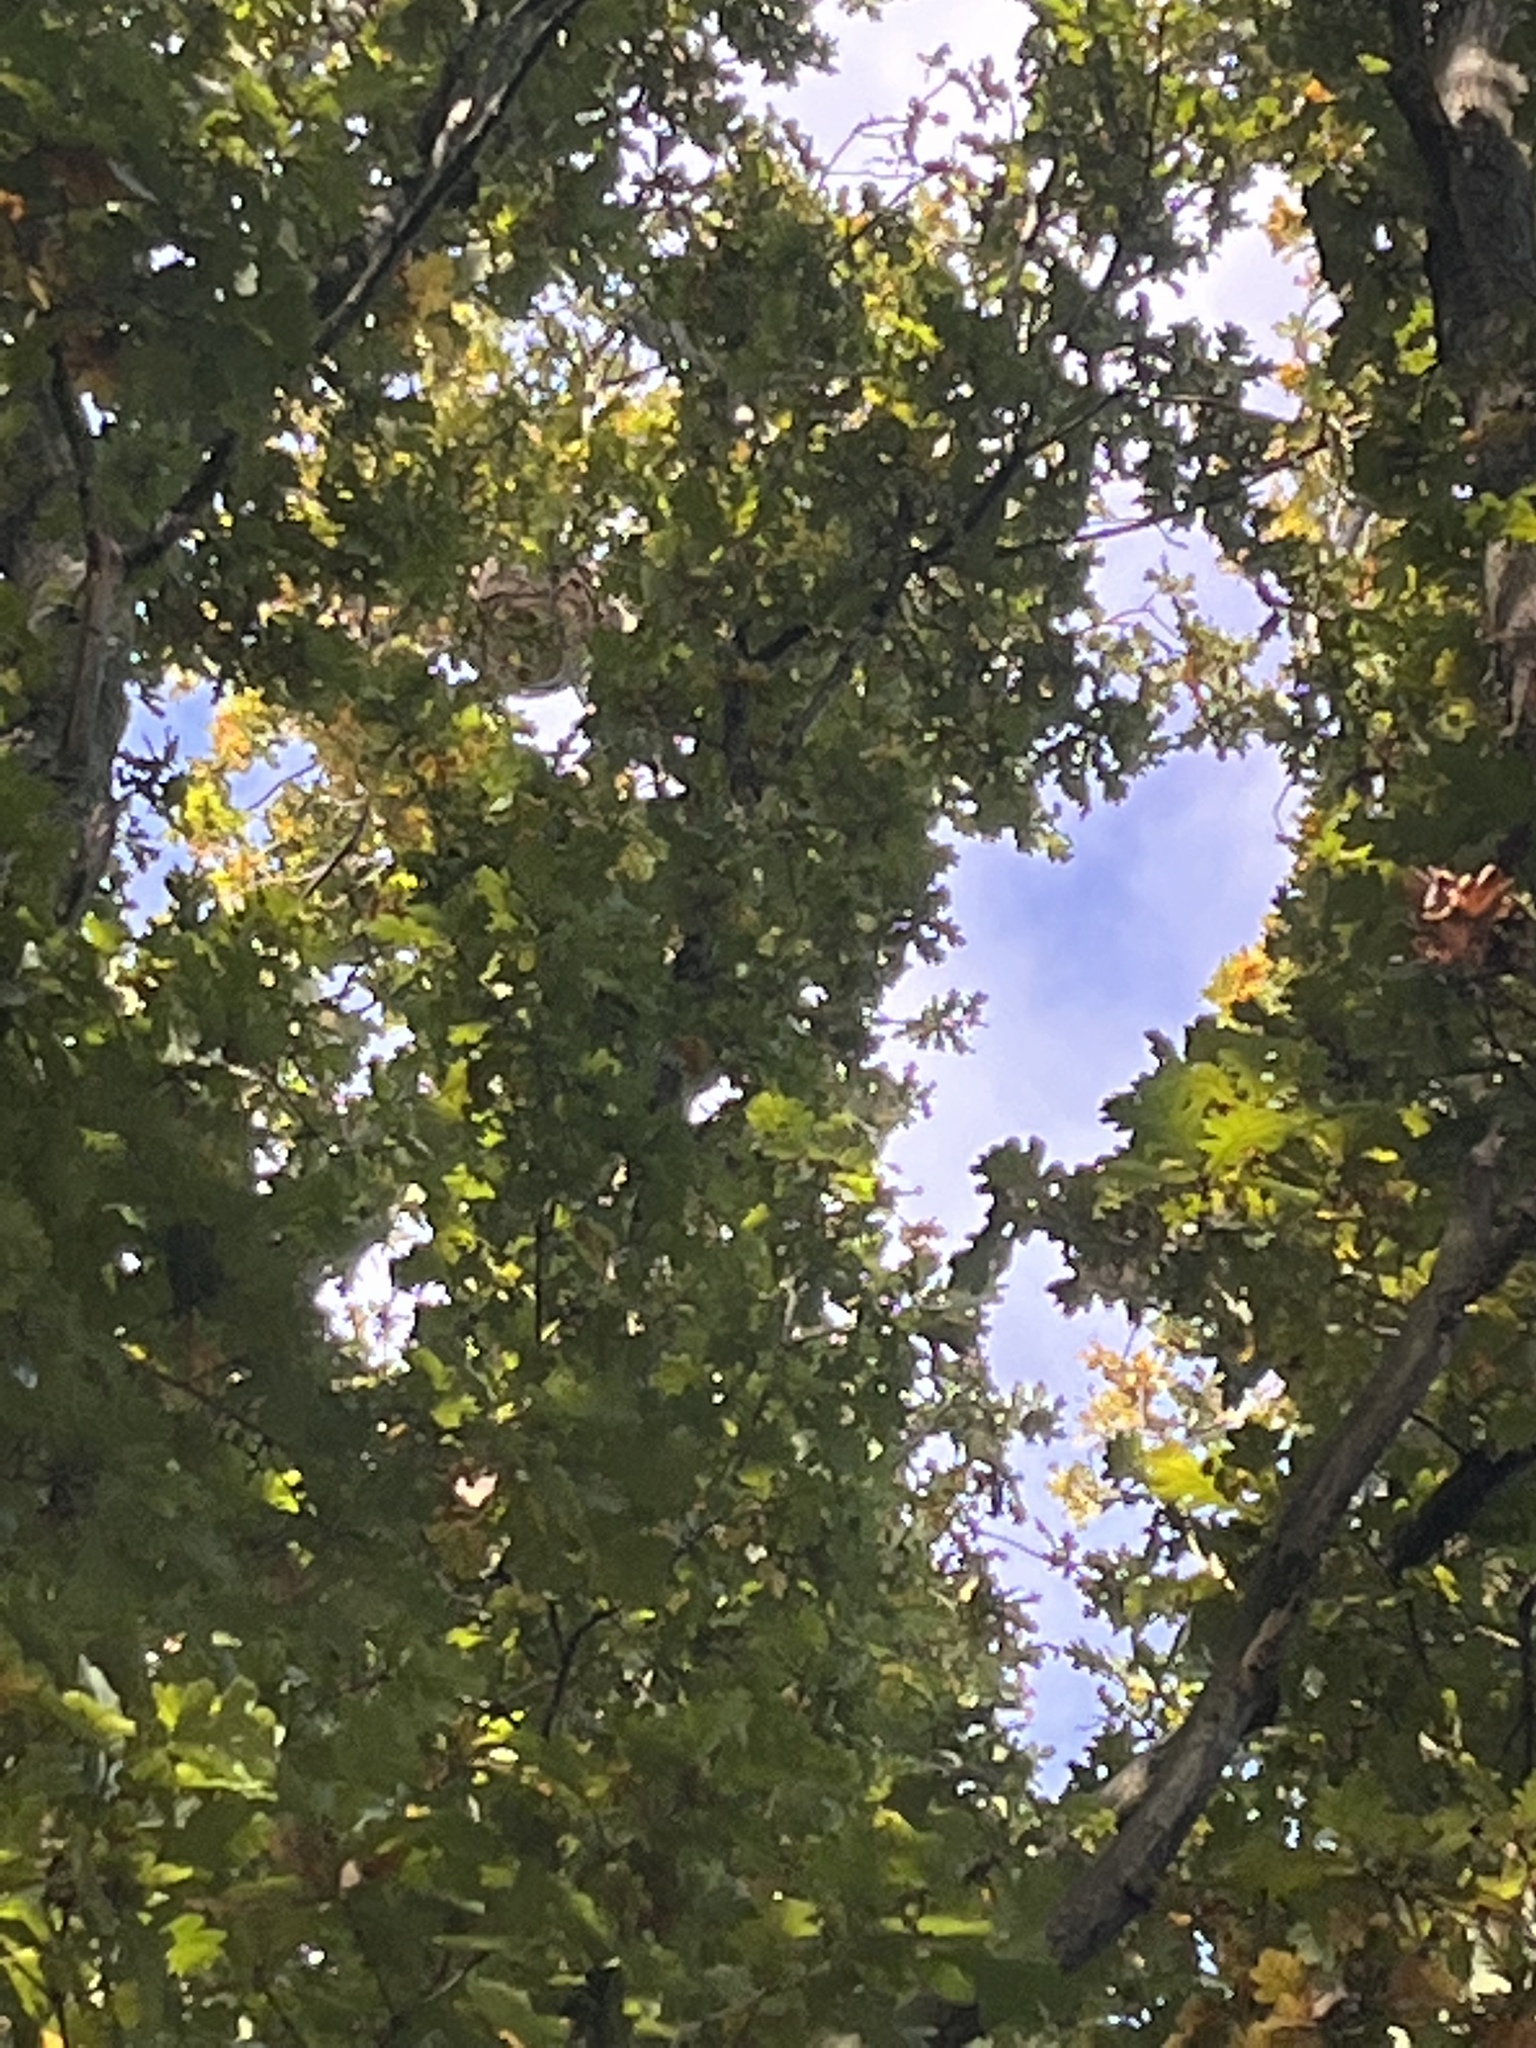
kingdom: Animalia
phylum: Arthropoda
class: Insecta
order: Hymenoptera
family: Vespidae
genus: Vespa
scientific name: Vespa velutina
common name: Asian hornet
